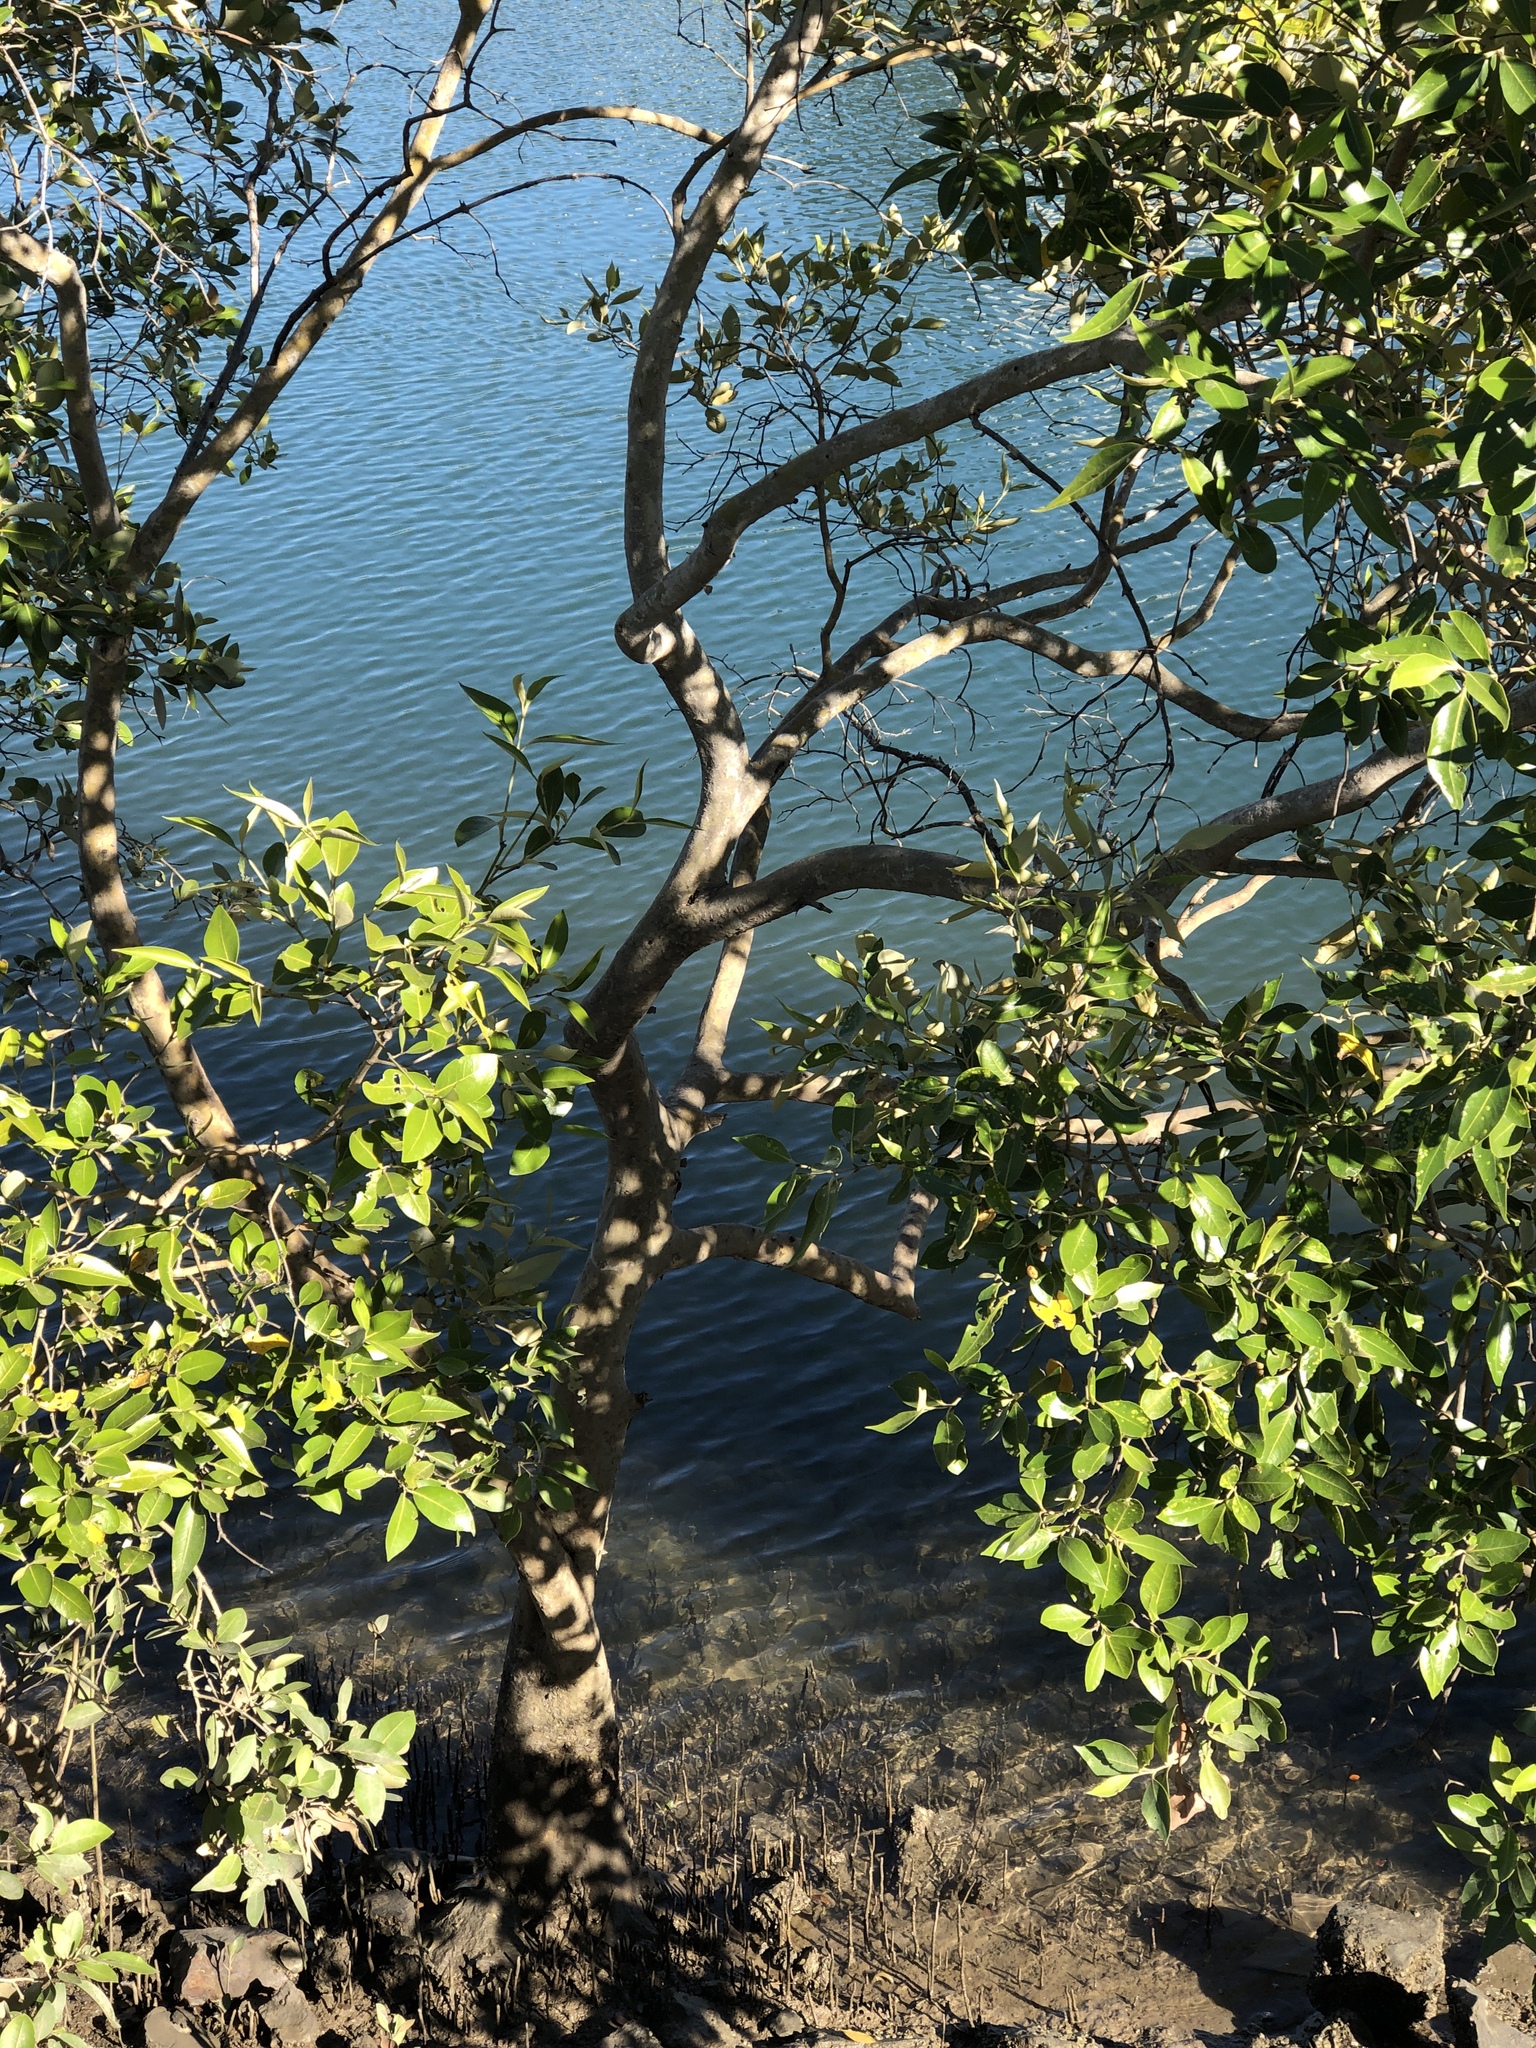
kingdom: Plantae
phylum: Tracheophyta
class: Magnoliopsida
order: Lamiales
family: Acanthaceae
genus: Avicennia
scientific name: Avicennia marina
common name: Gray mangrove
